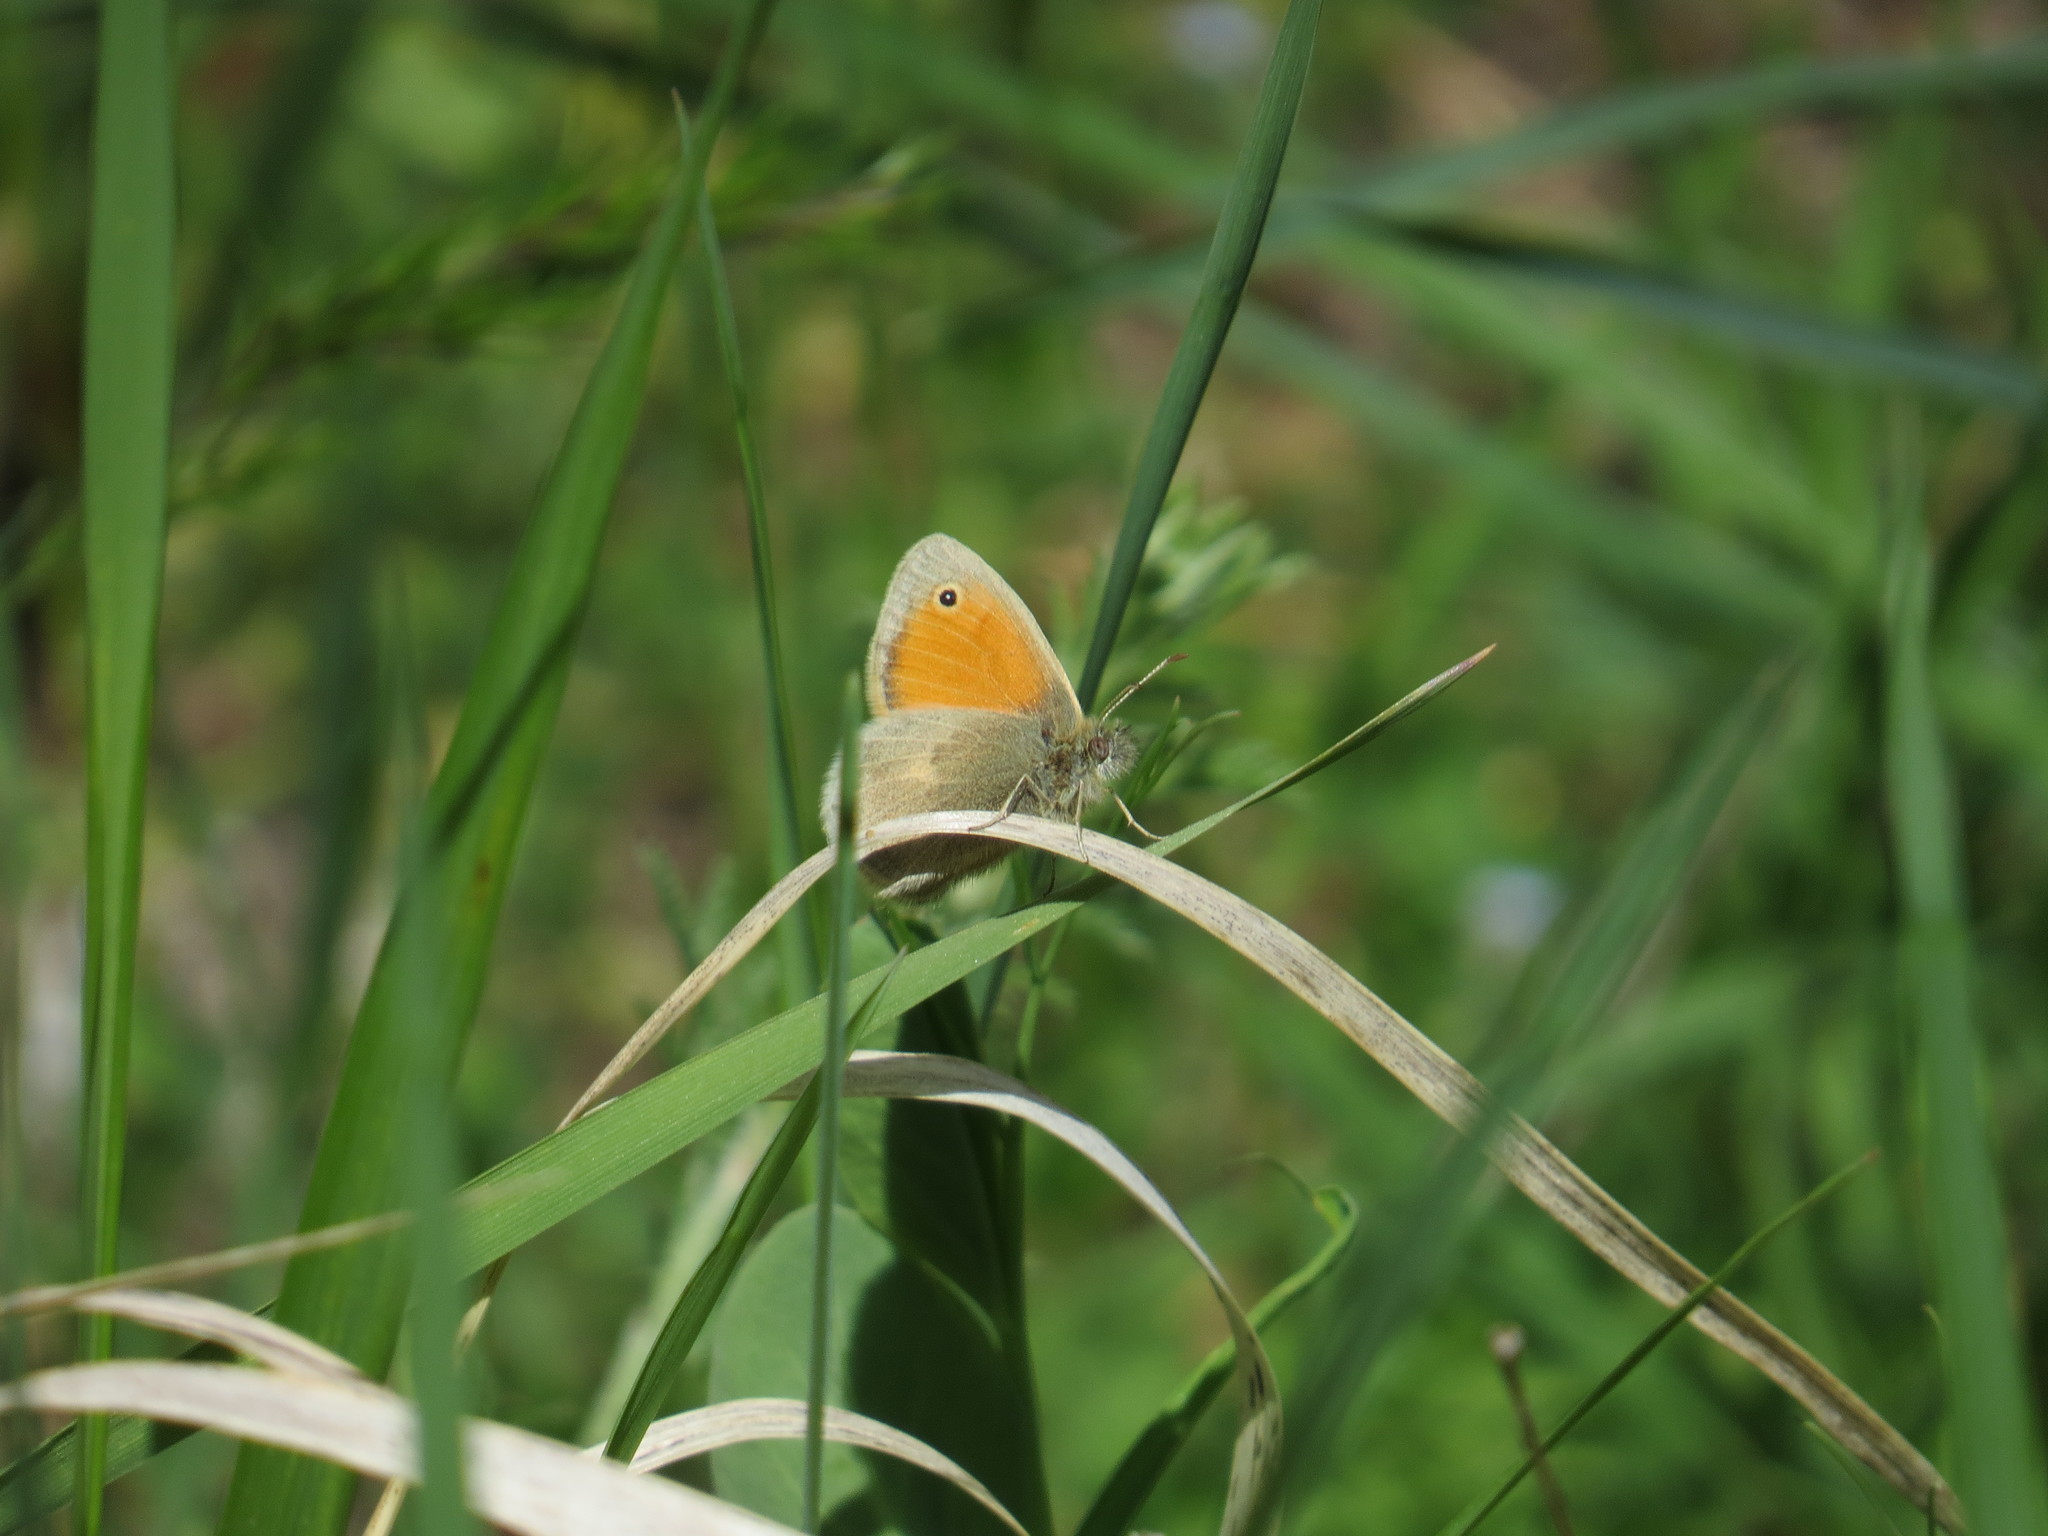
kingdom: Animalia
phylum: Arthropoda
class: Insecta
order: Lepidoptera
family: Nymphalidae
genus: Coenonympha
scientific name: Coenonympha pamphilus
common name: Small heath
